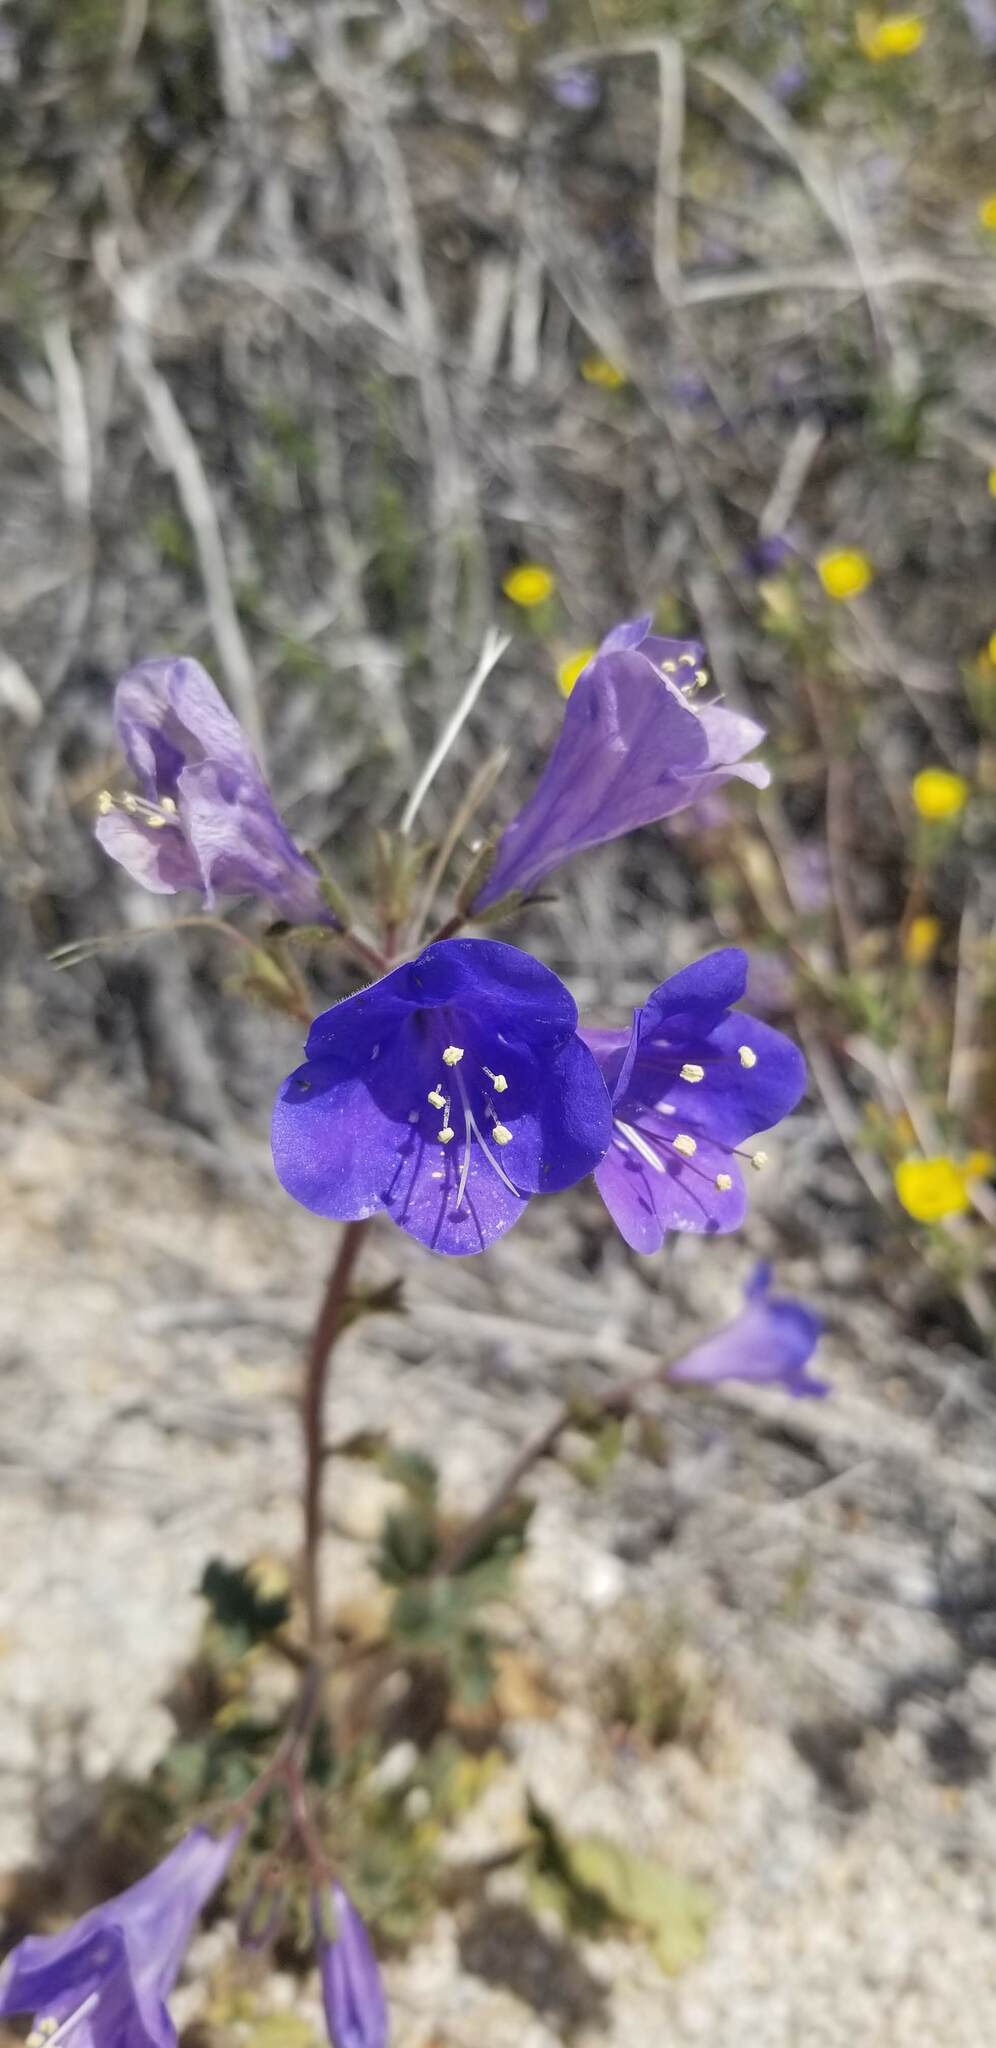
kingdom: Plantae
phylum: Tracheophyta
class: Magnoliopsida
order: Boraginales
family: Hydrophyllaceae
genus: Phacelia
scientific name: Phacelia campanularia
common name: California bluebell
